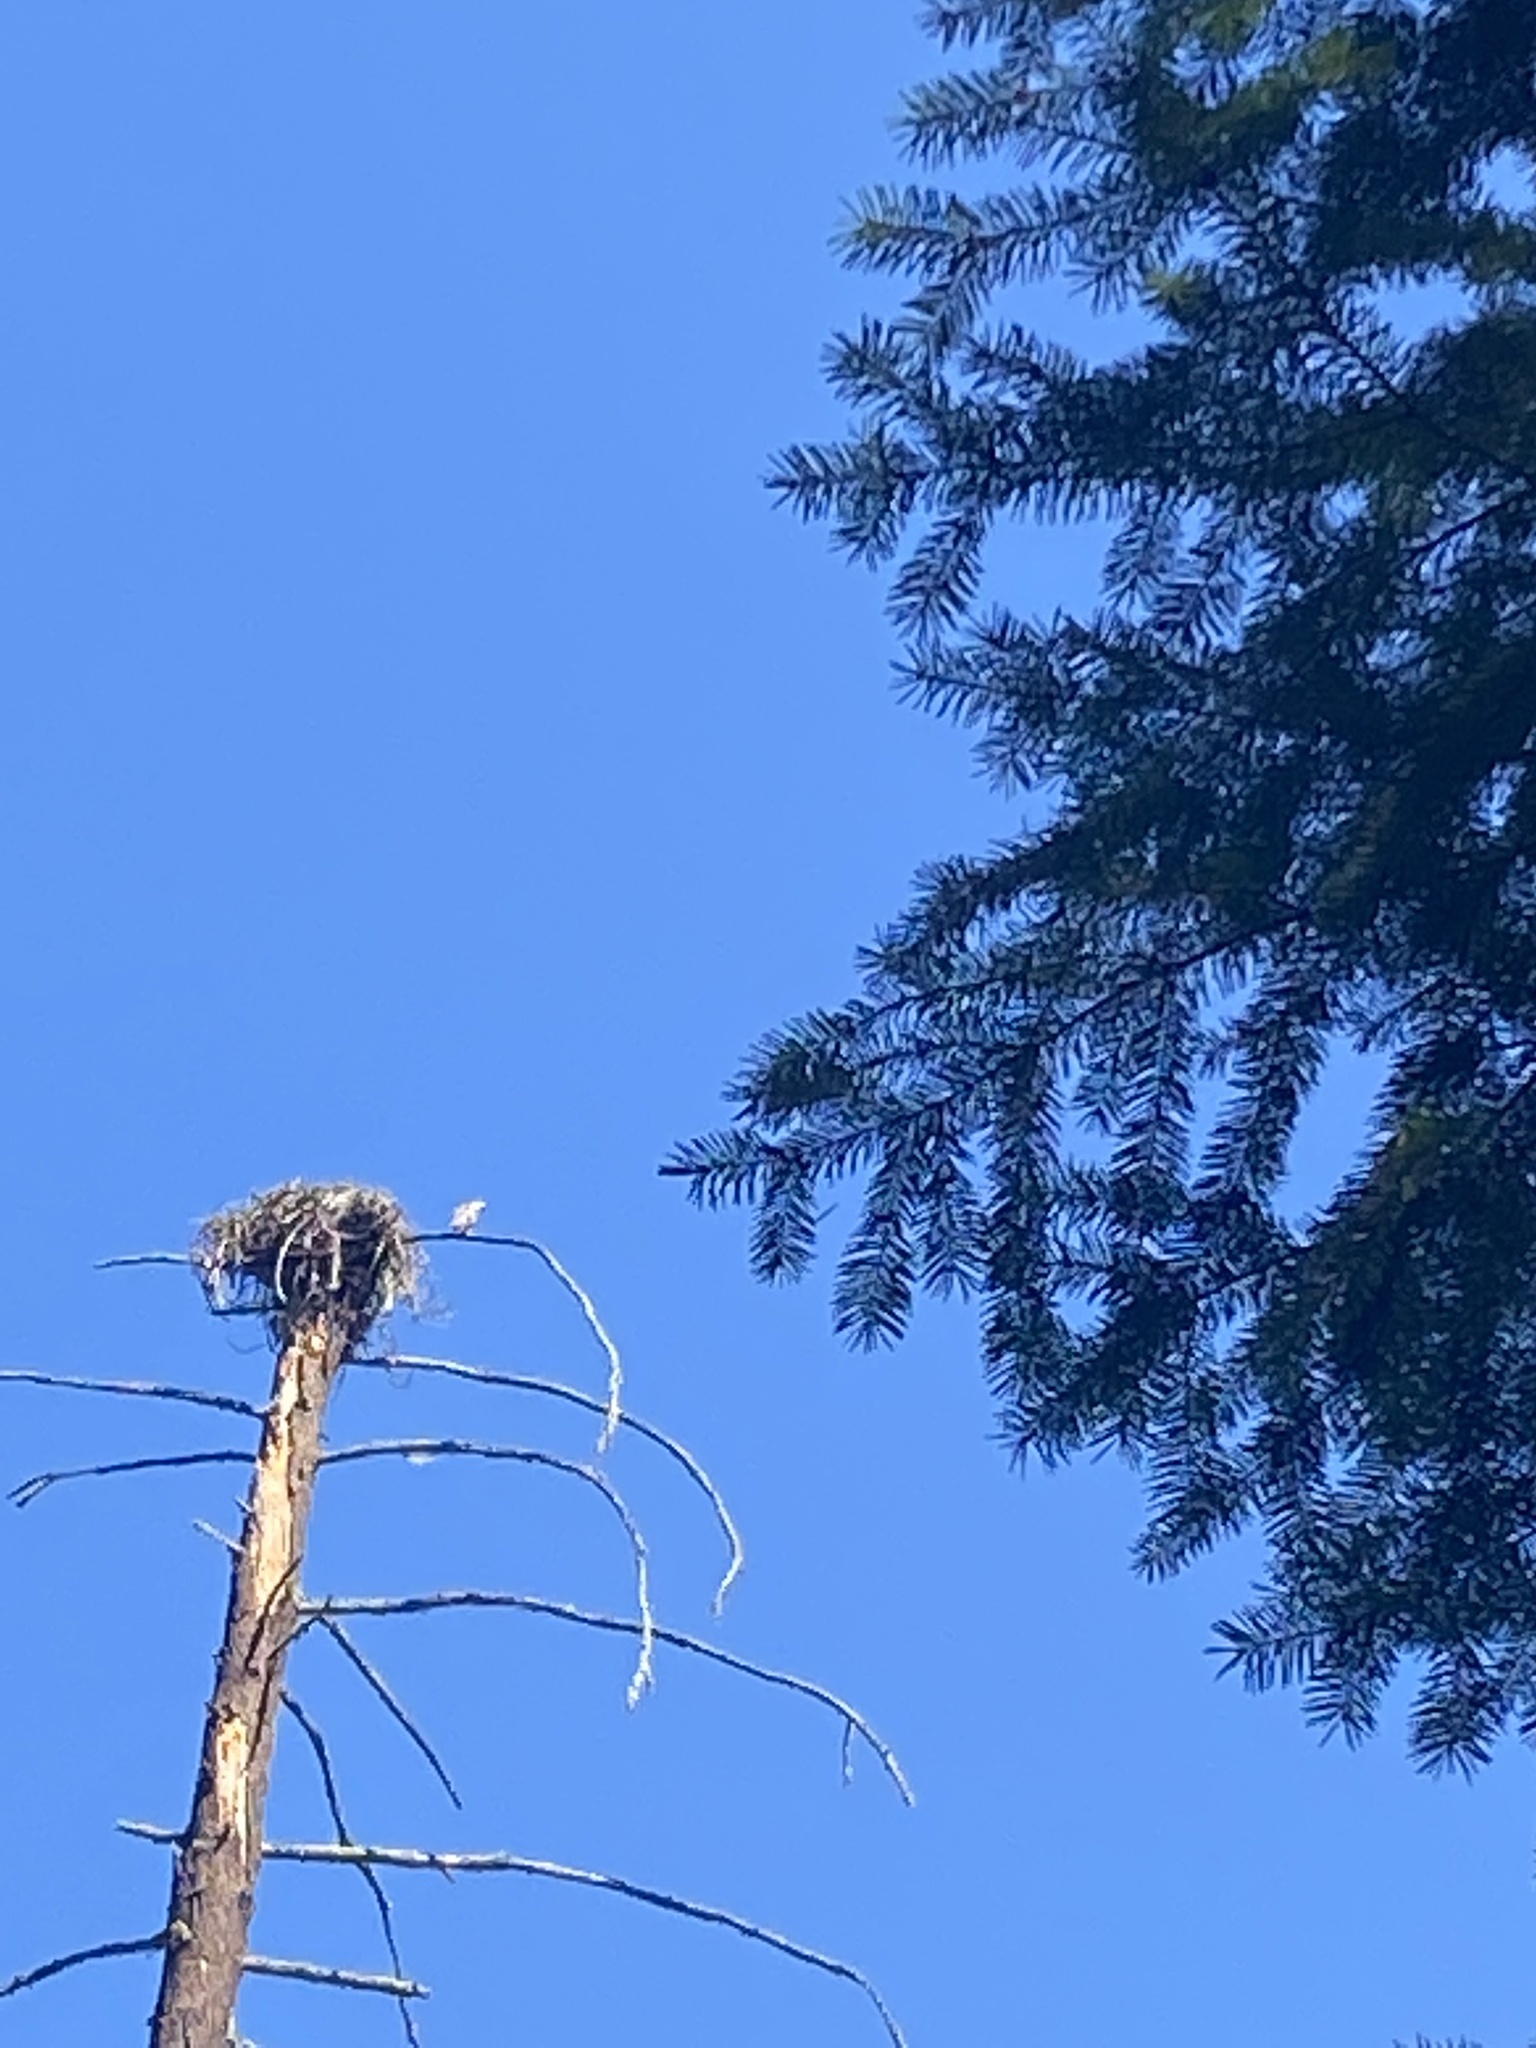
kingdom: Animalia
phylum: Chordata
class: Aves
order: Accipitriformes
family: Pandionidae
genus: Pandion
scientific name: Pandion haliaetus
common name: Osprey
